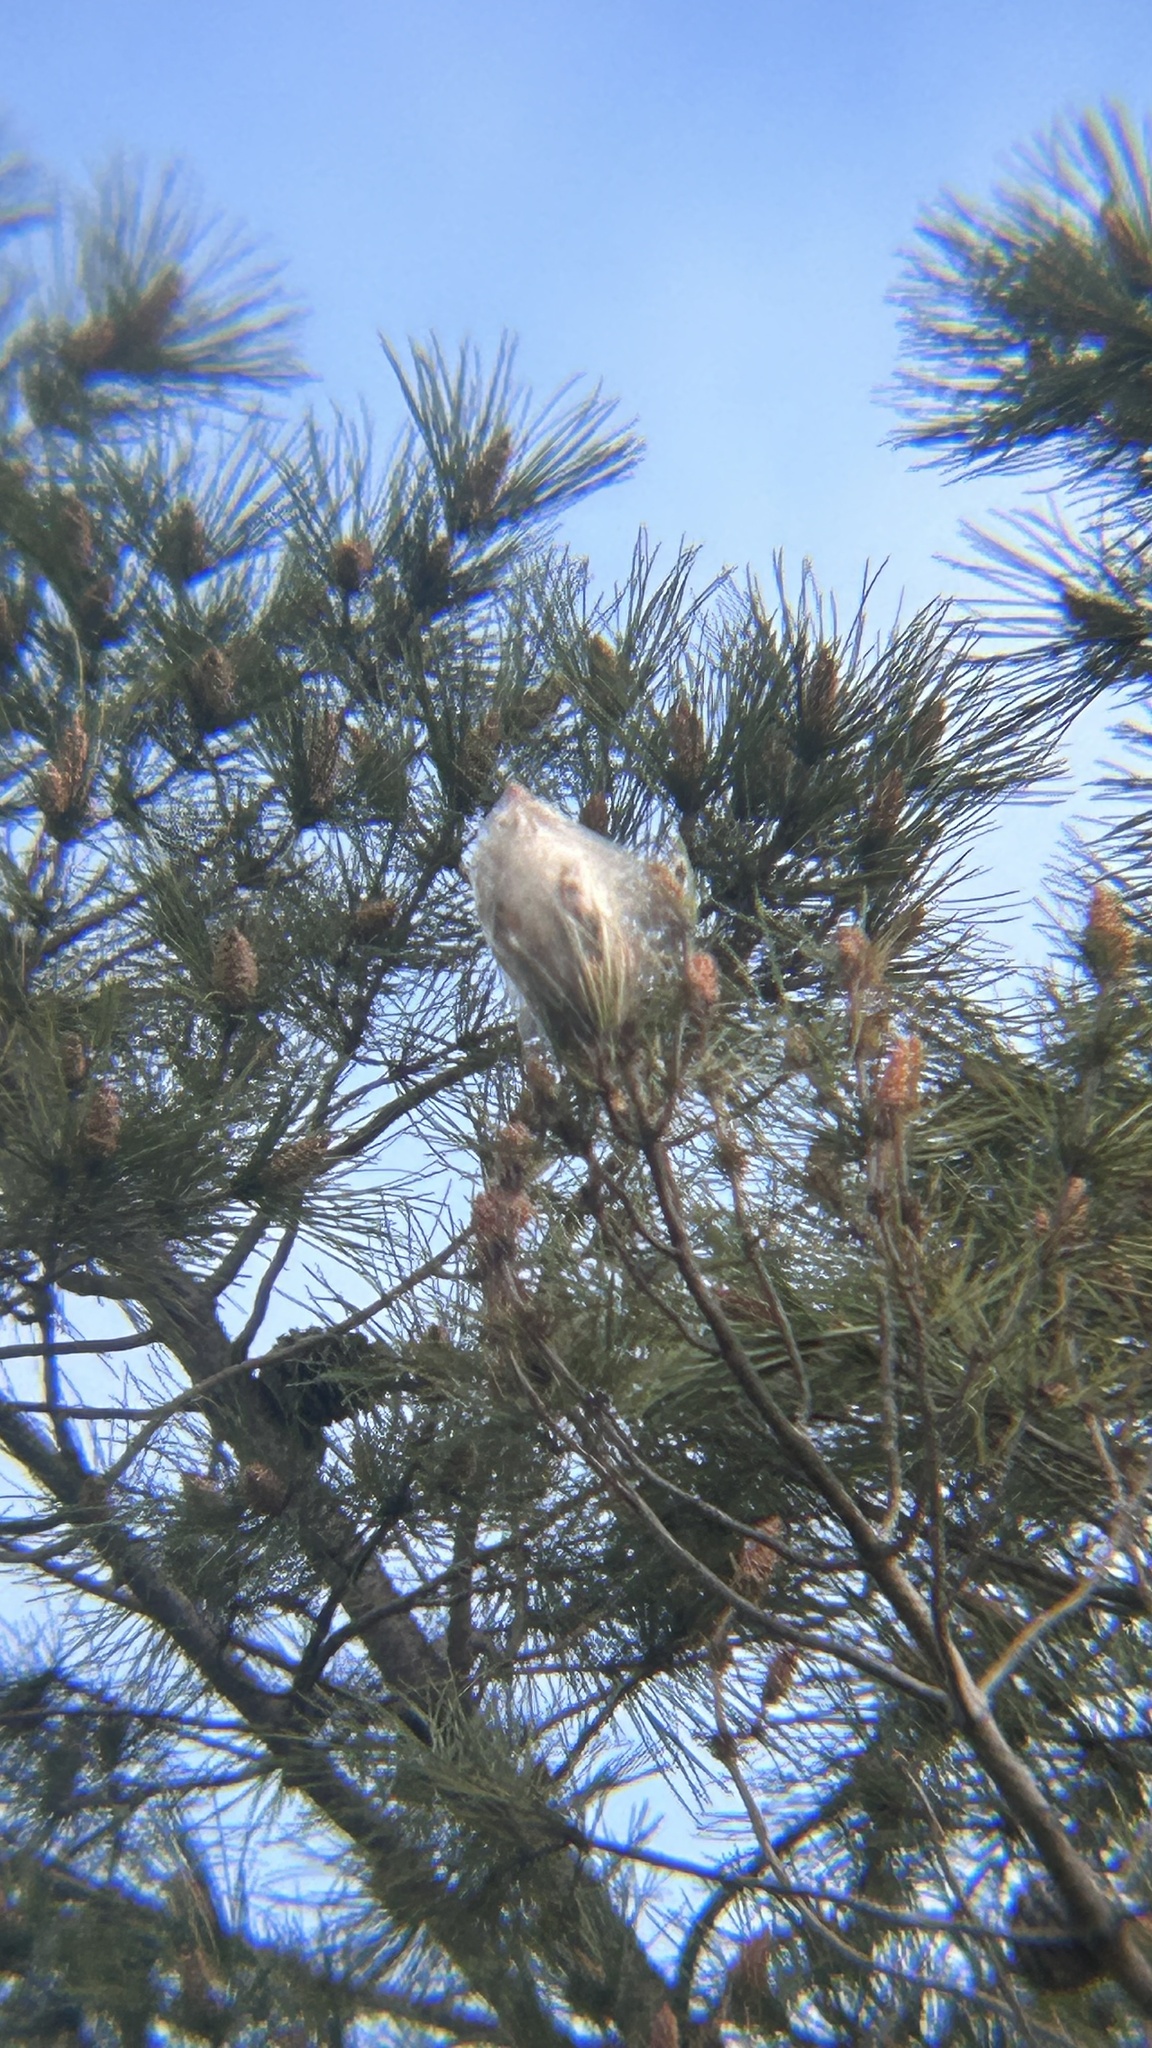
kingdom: Animalia
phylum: Arthropoda
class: Insecta
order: Lepidoptera
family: Notodontidae
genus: Thaumetopoea
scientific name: Thaumetopoea pityocampa
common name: Pine processionary
